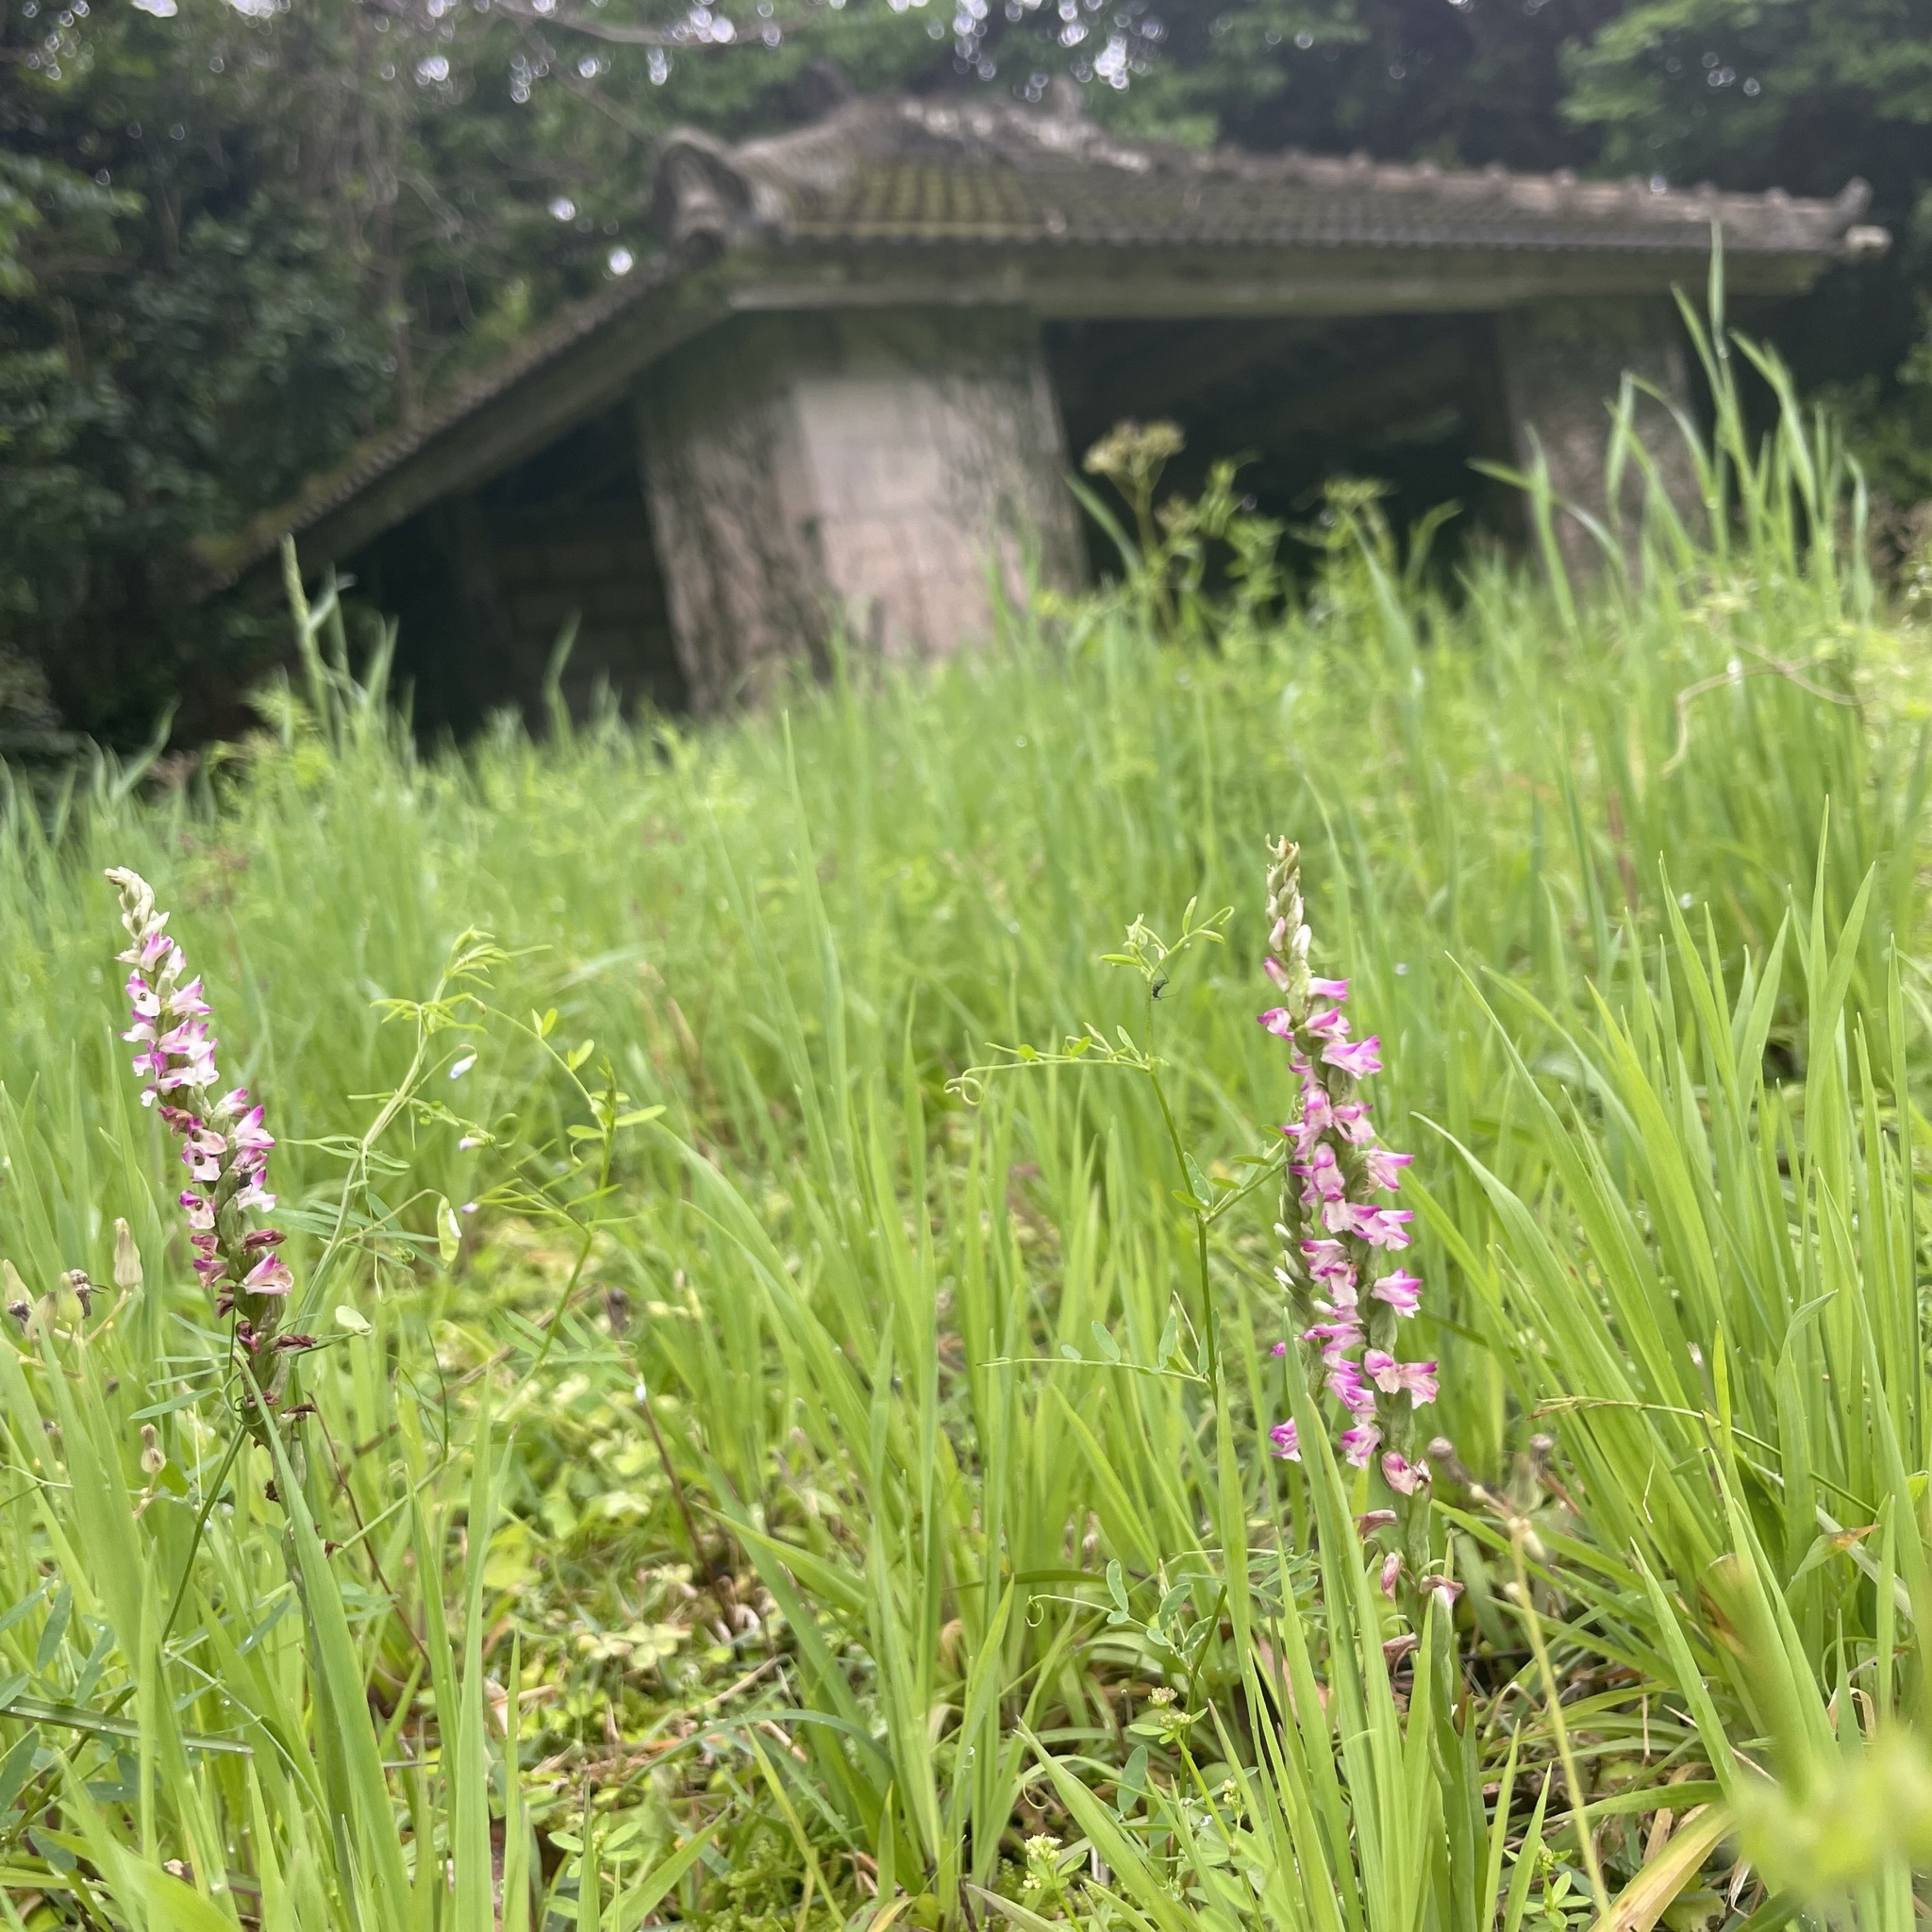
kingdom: Plantae
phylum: Tracheophyta
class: Liliopsida
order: Asparagales
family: Orchidaceae
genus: Spiranthes
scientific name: Spiranthes sinensis
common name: Chinese spiranthes
